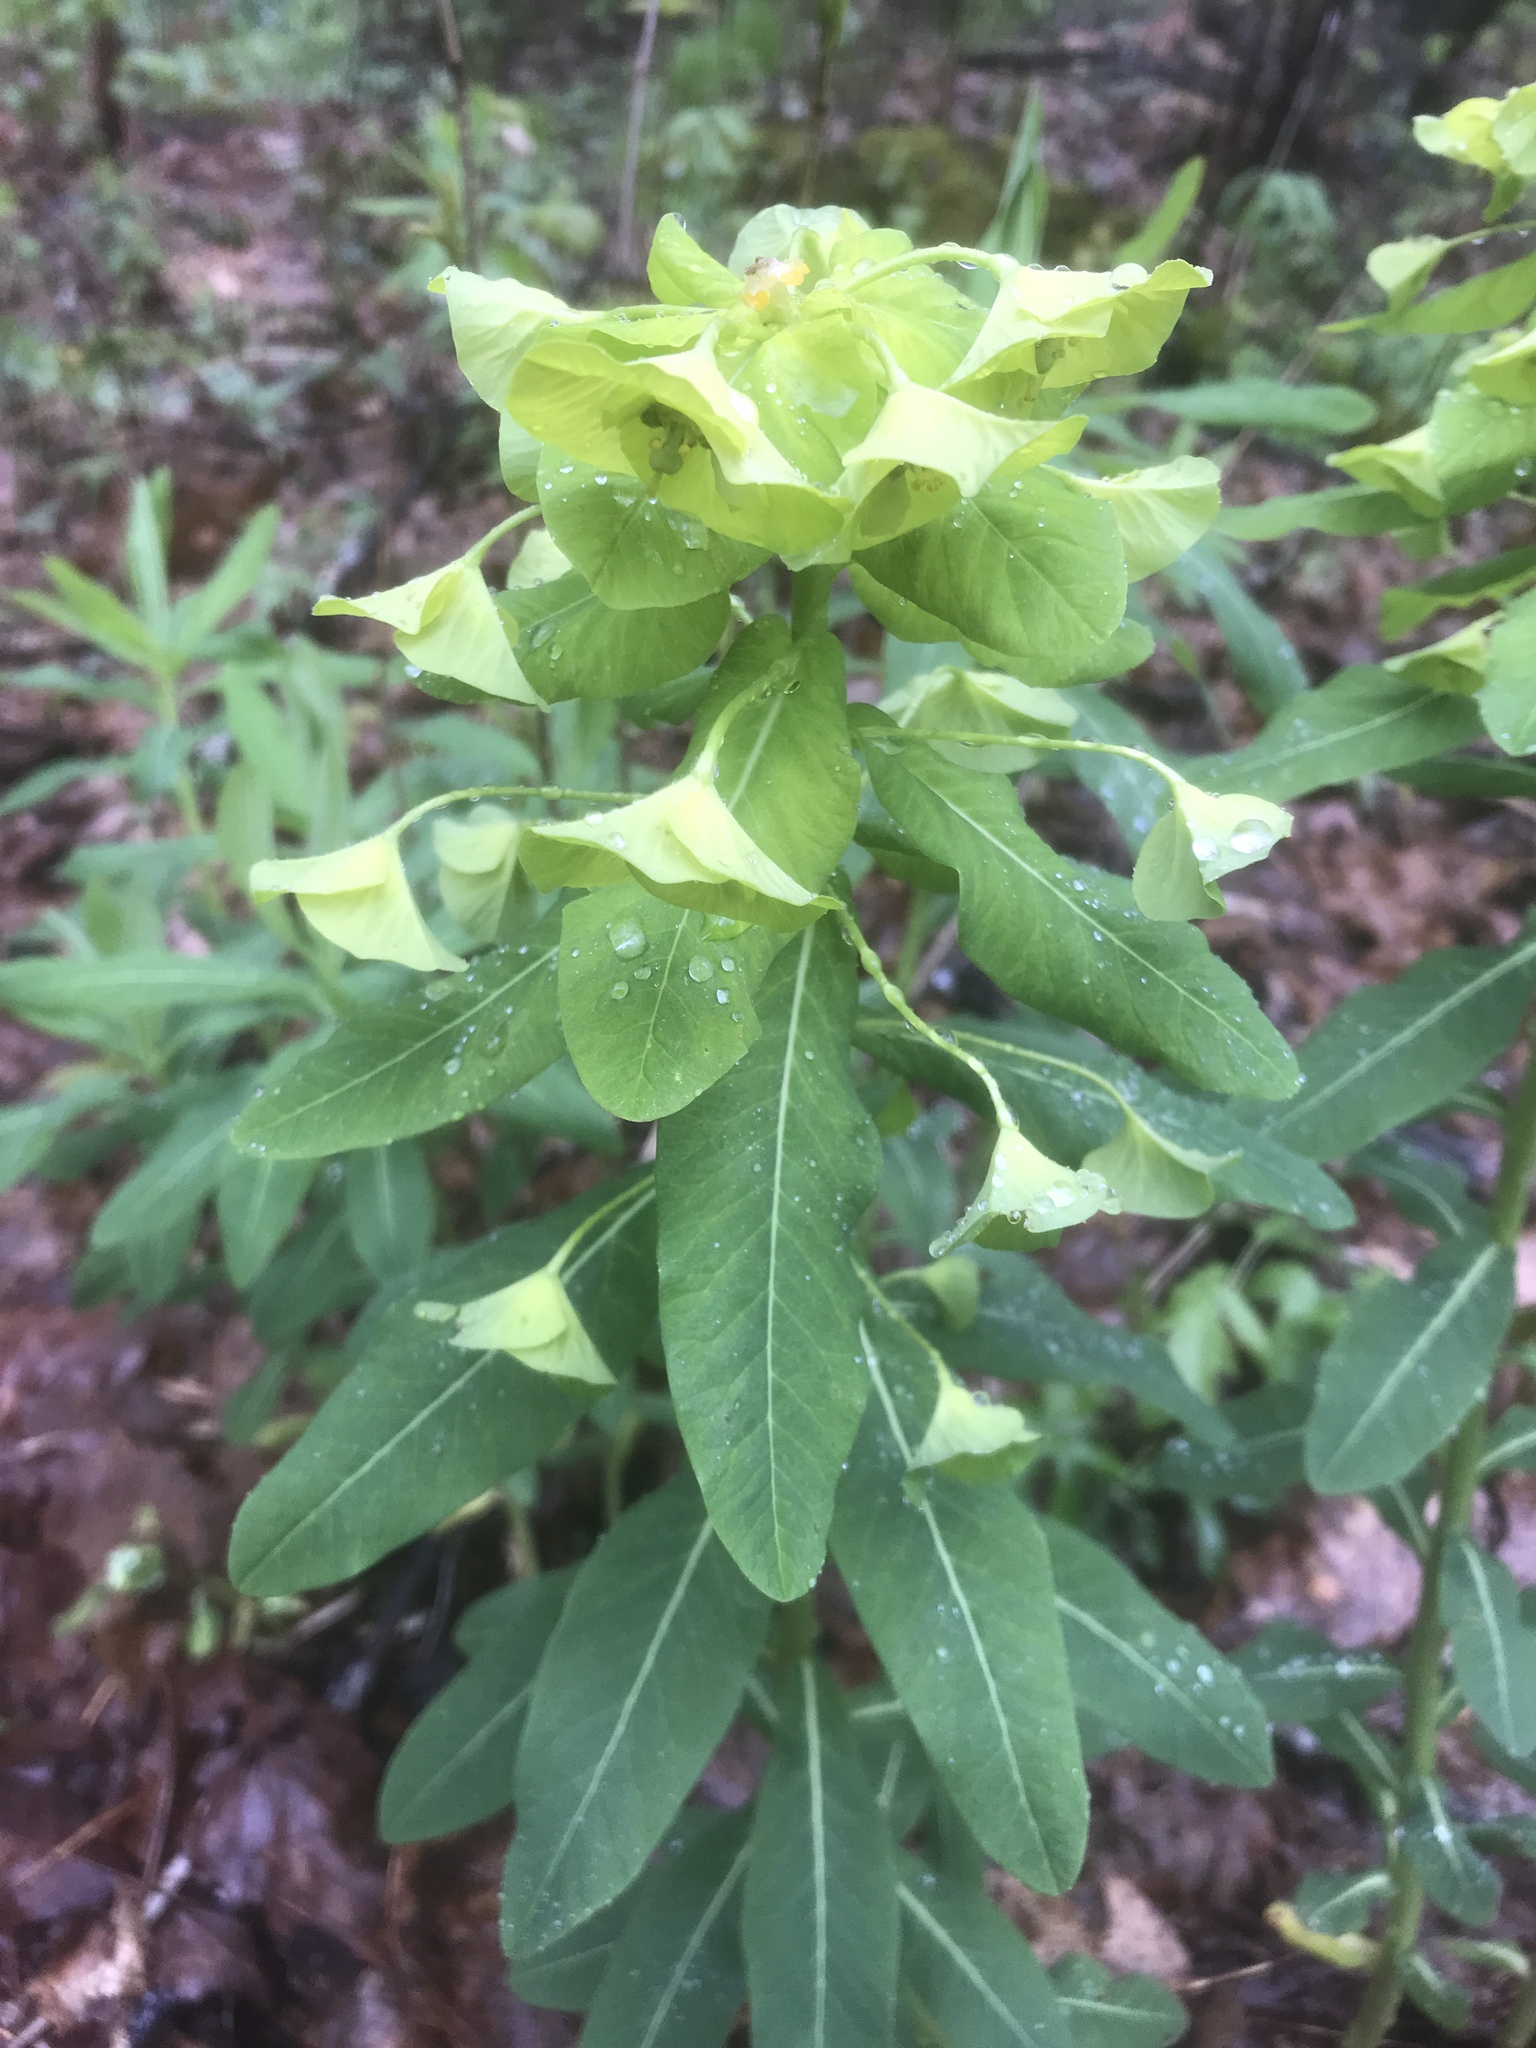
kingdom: Plantae
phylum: Tracheophyta
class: Magnoliopsida
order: Malpighiales
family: Euphorbiaceae
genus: Euphorbia
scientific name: Euphorbia purpurea
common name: Darlington's spurge
